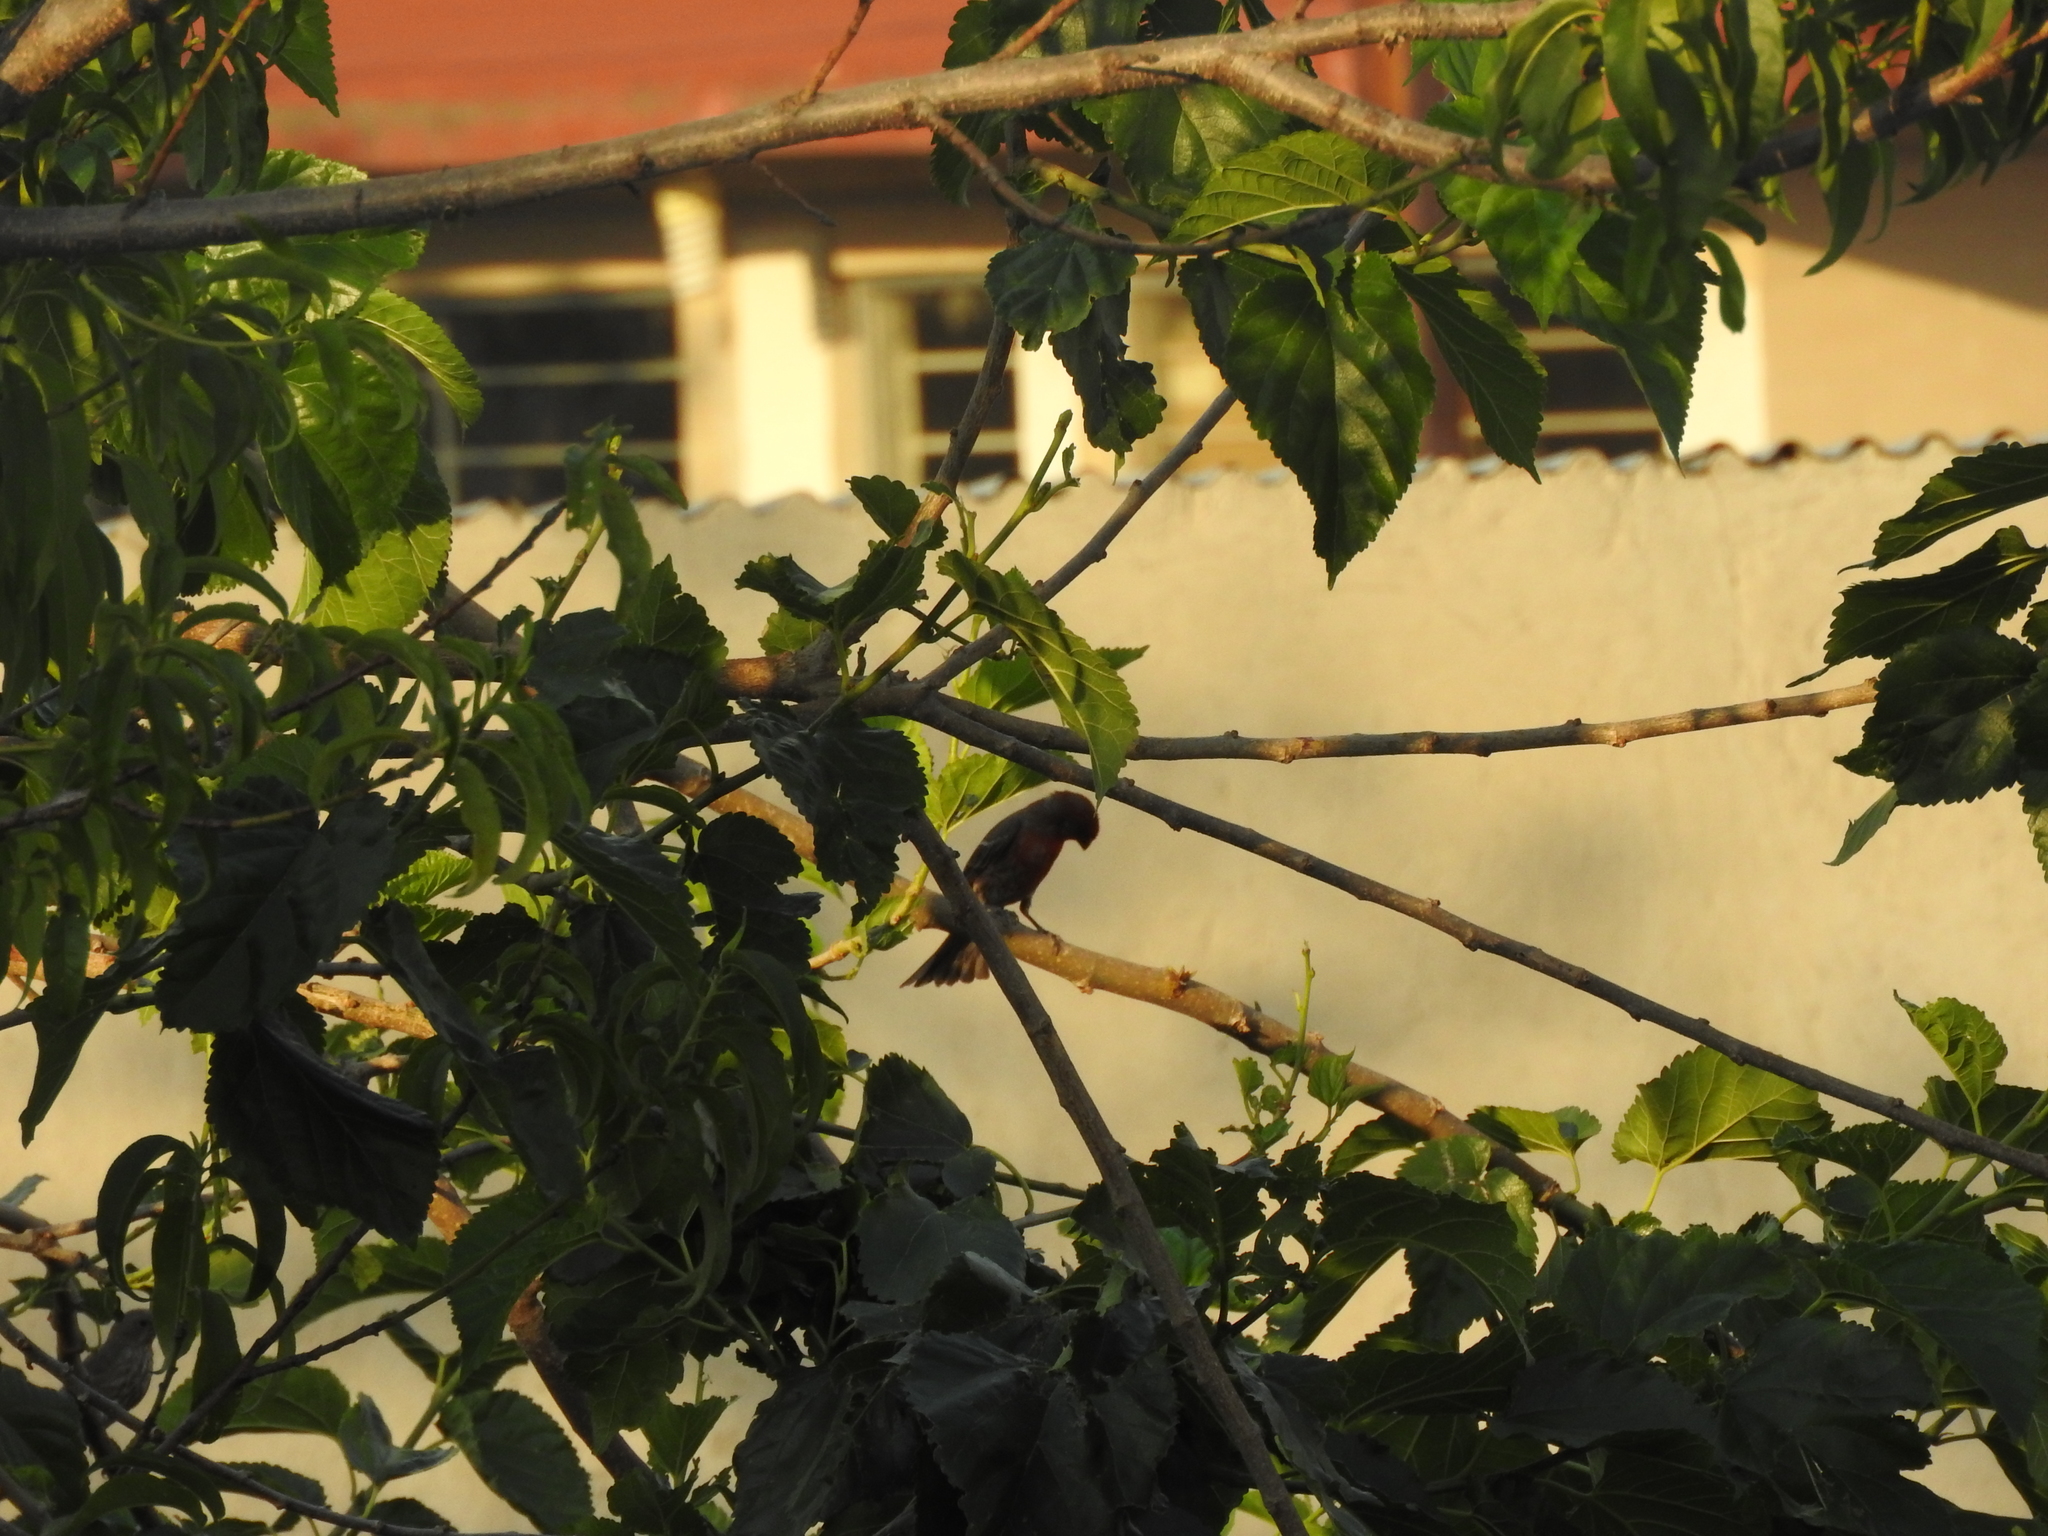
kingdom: Animalia
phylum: Chordata
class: Aves
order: Passeriformes
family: Fringillidae
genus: Haemorhous
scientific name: Haemorhous mexicanus
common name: House finch
